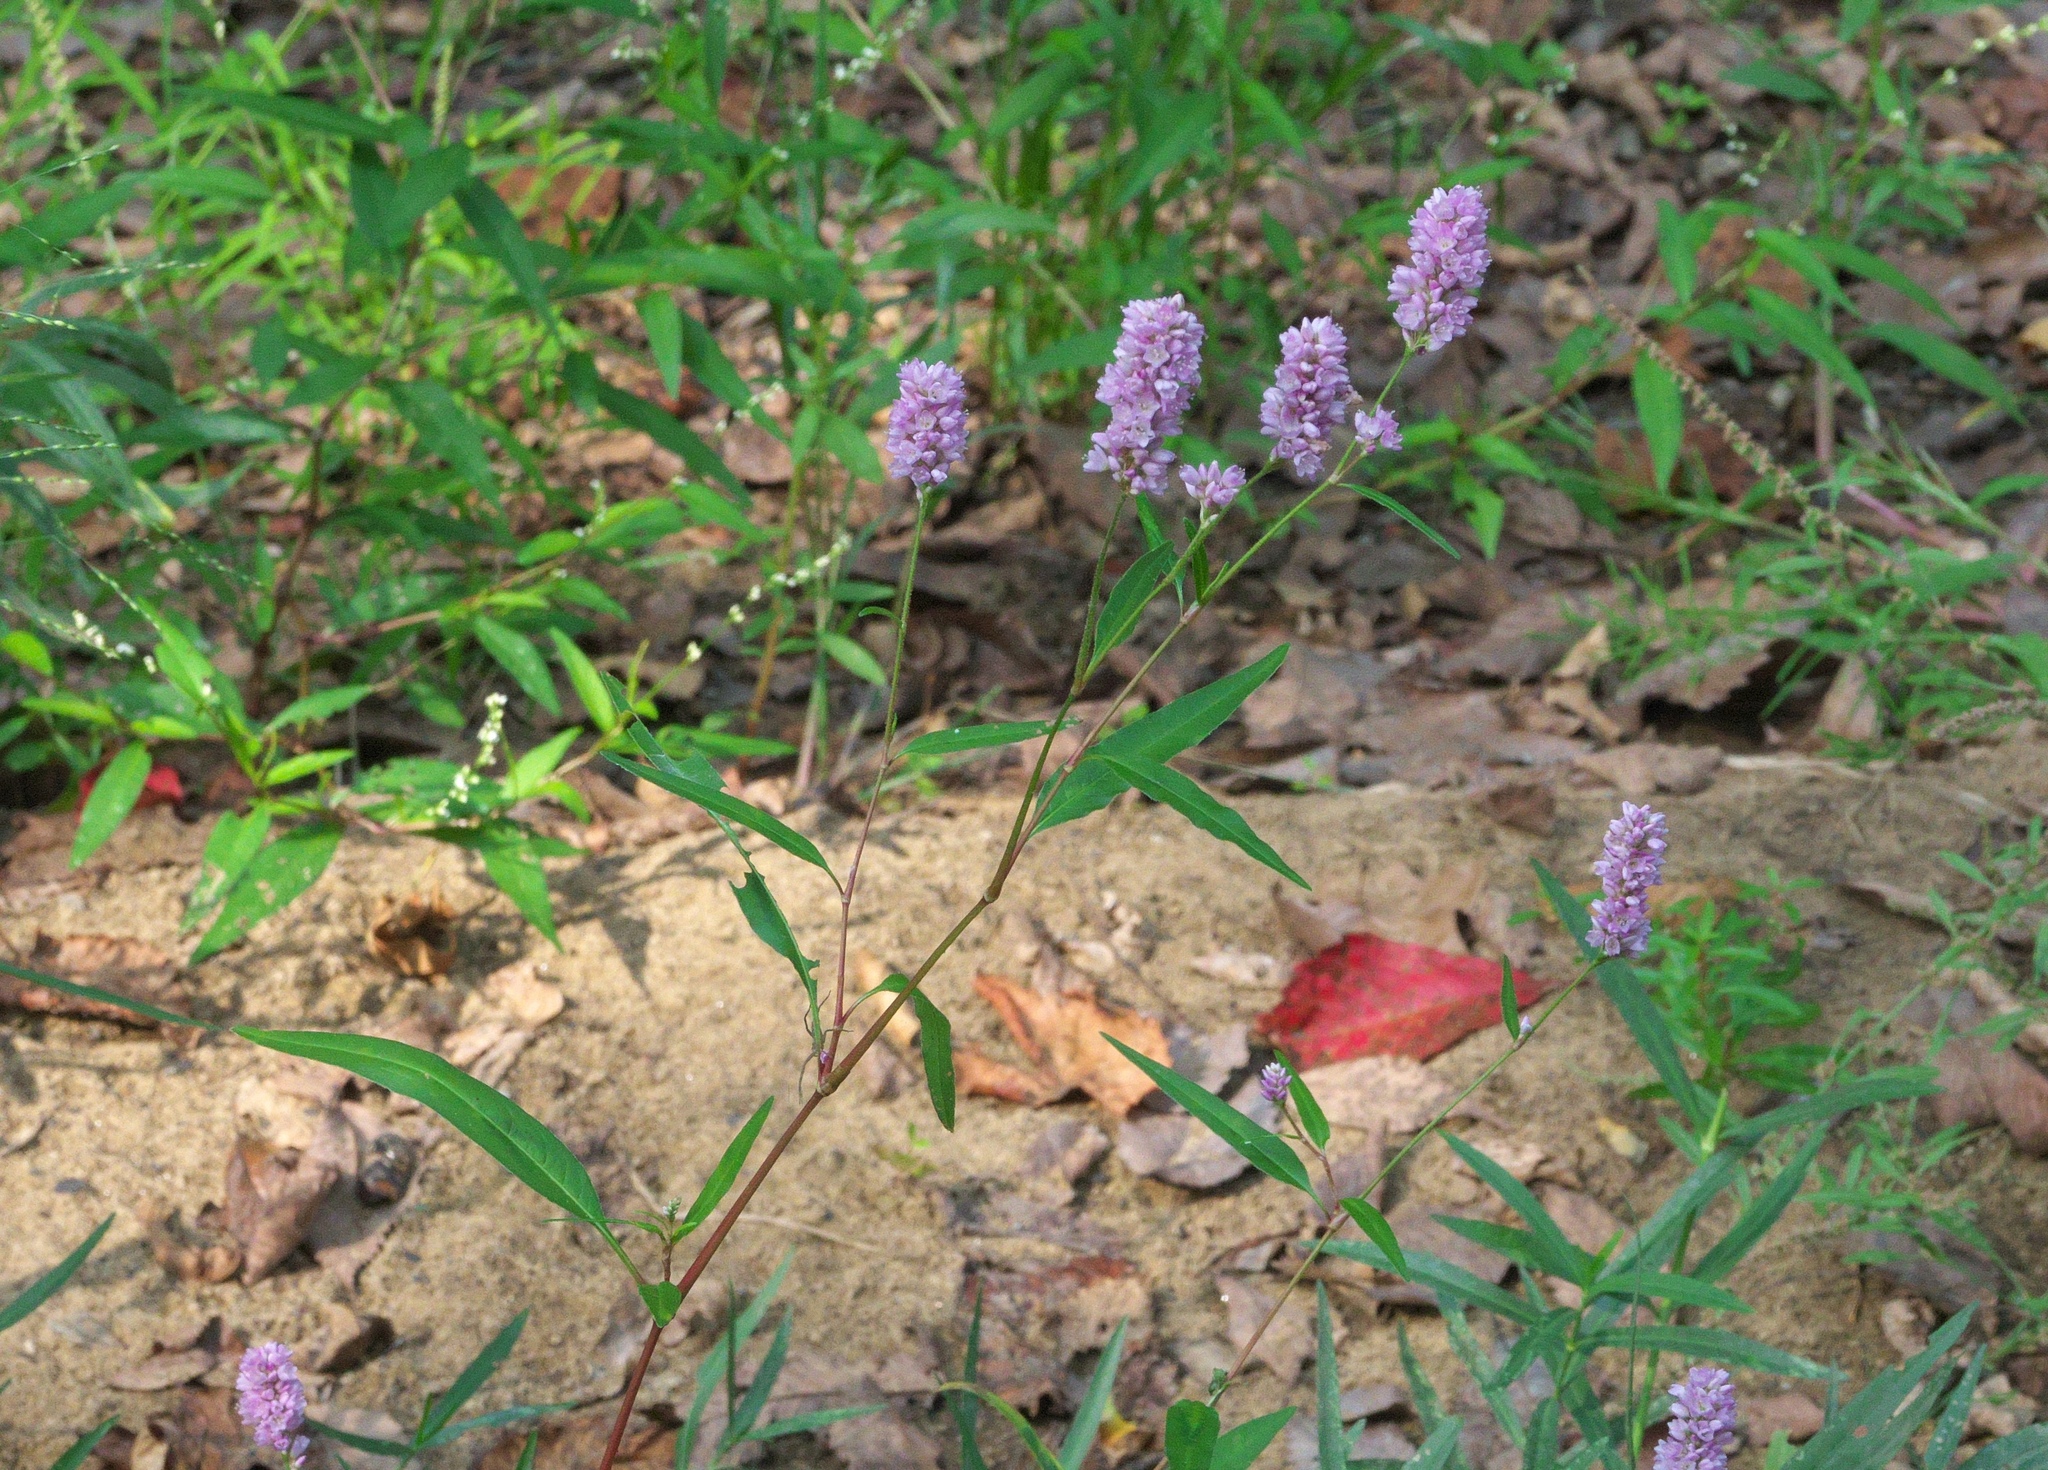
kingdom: Plantae
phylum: Tracheophyta
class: Magnoliopsida
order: Caryophyllales
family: Polygonaceae
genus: Persicaria
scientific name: Persicaria pensylvanica
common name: Pinkweed
